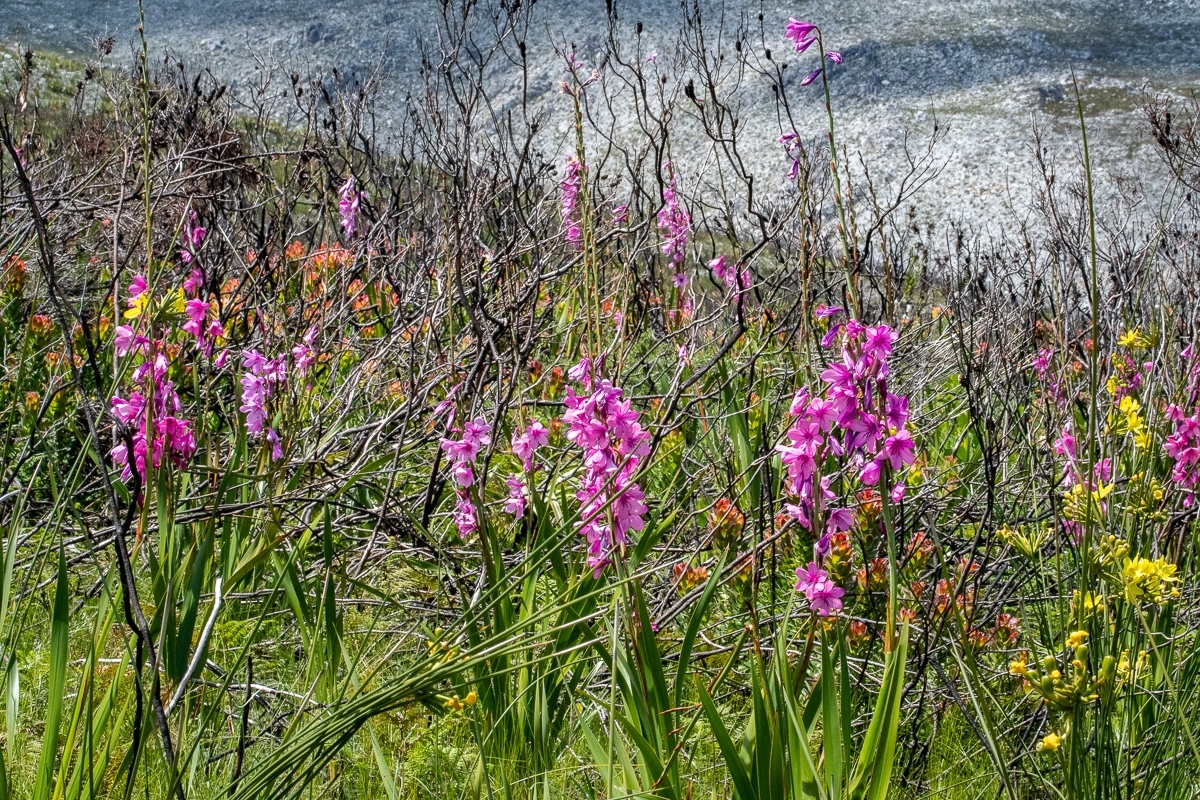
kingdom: Plantae
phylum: Tracheophyta
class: Liliopsida
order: Asparagales
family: Iridaceae
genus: Watsonia
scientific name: Watsonia borbonica
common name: Bugle-lily
